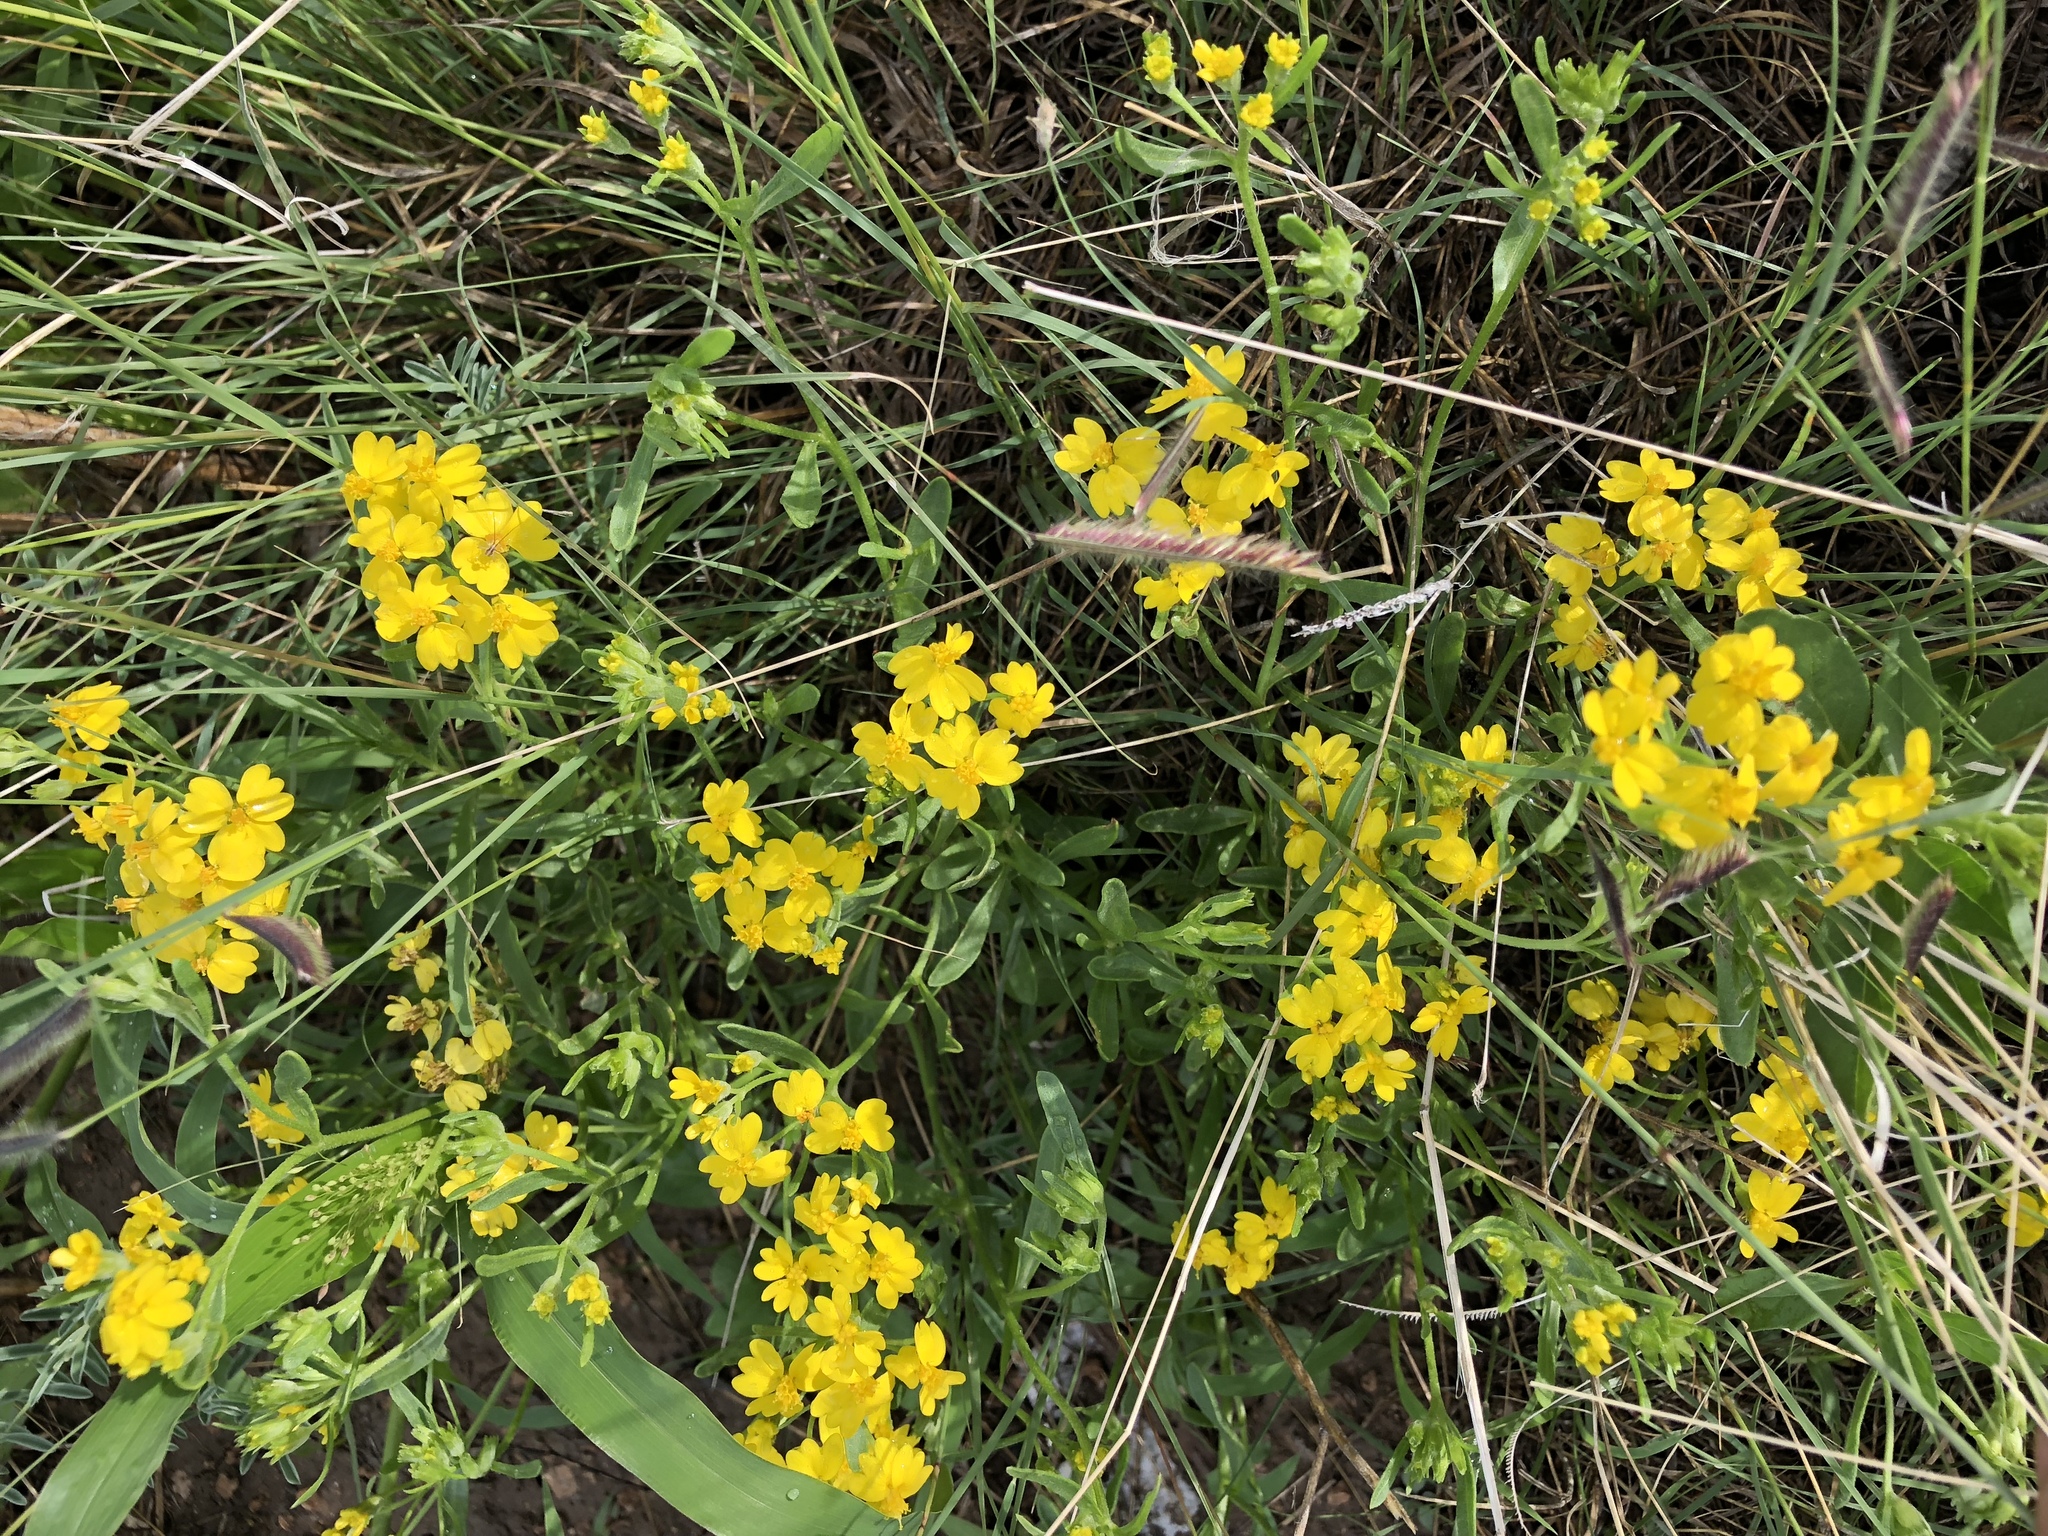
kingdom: Plantae
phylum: Tracheophyta
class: Magnoliopsida
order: Asterales
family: Asteraceae
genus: Psilostrophe
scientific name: Psilostrophe tagetina
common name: Marigold paper-flower
